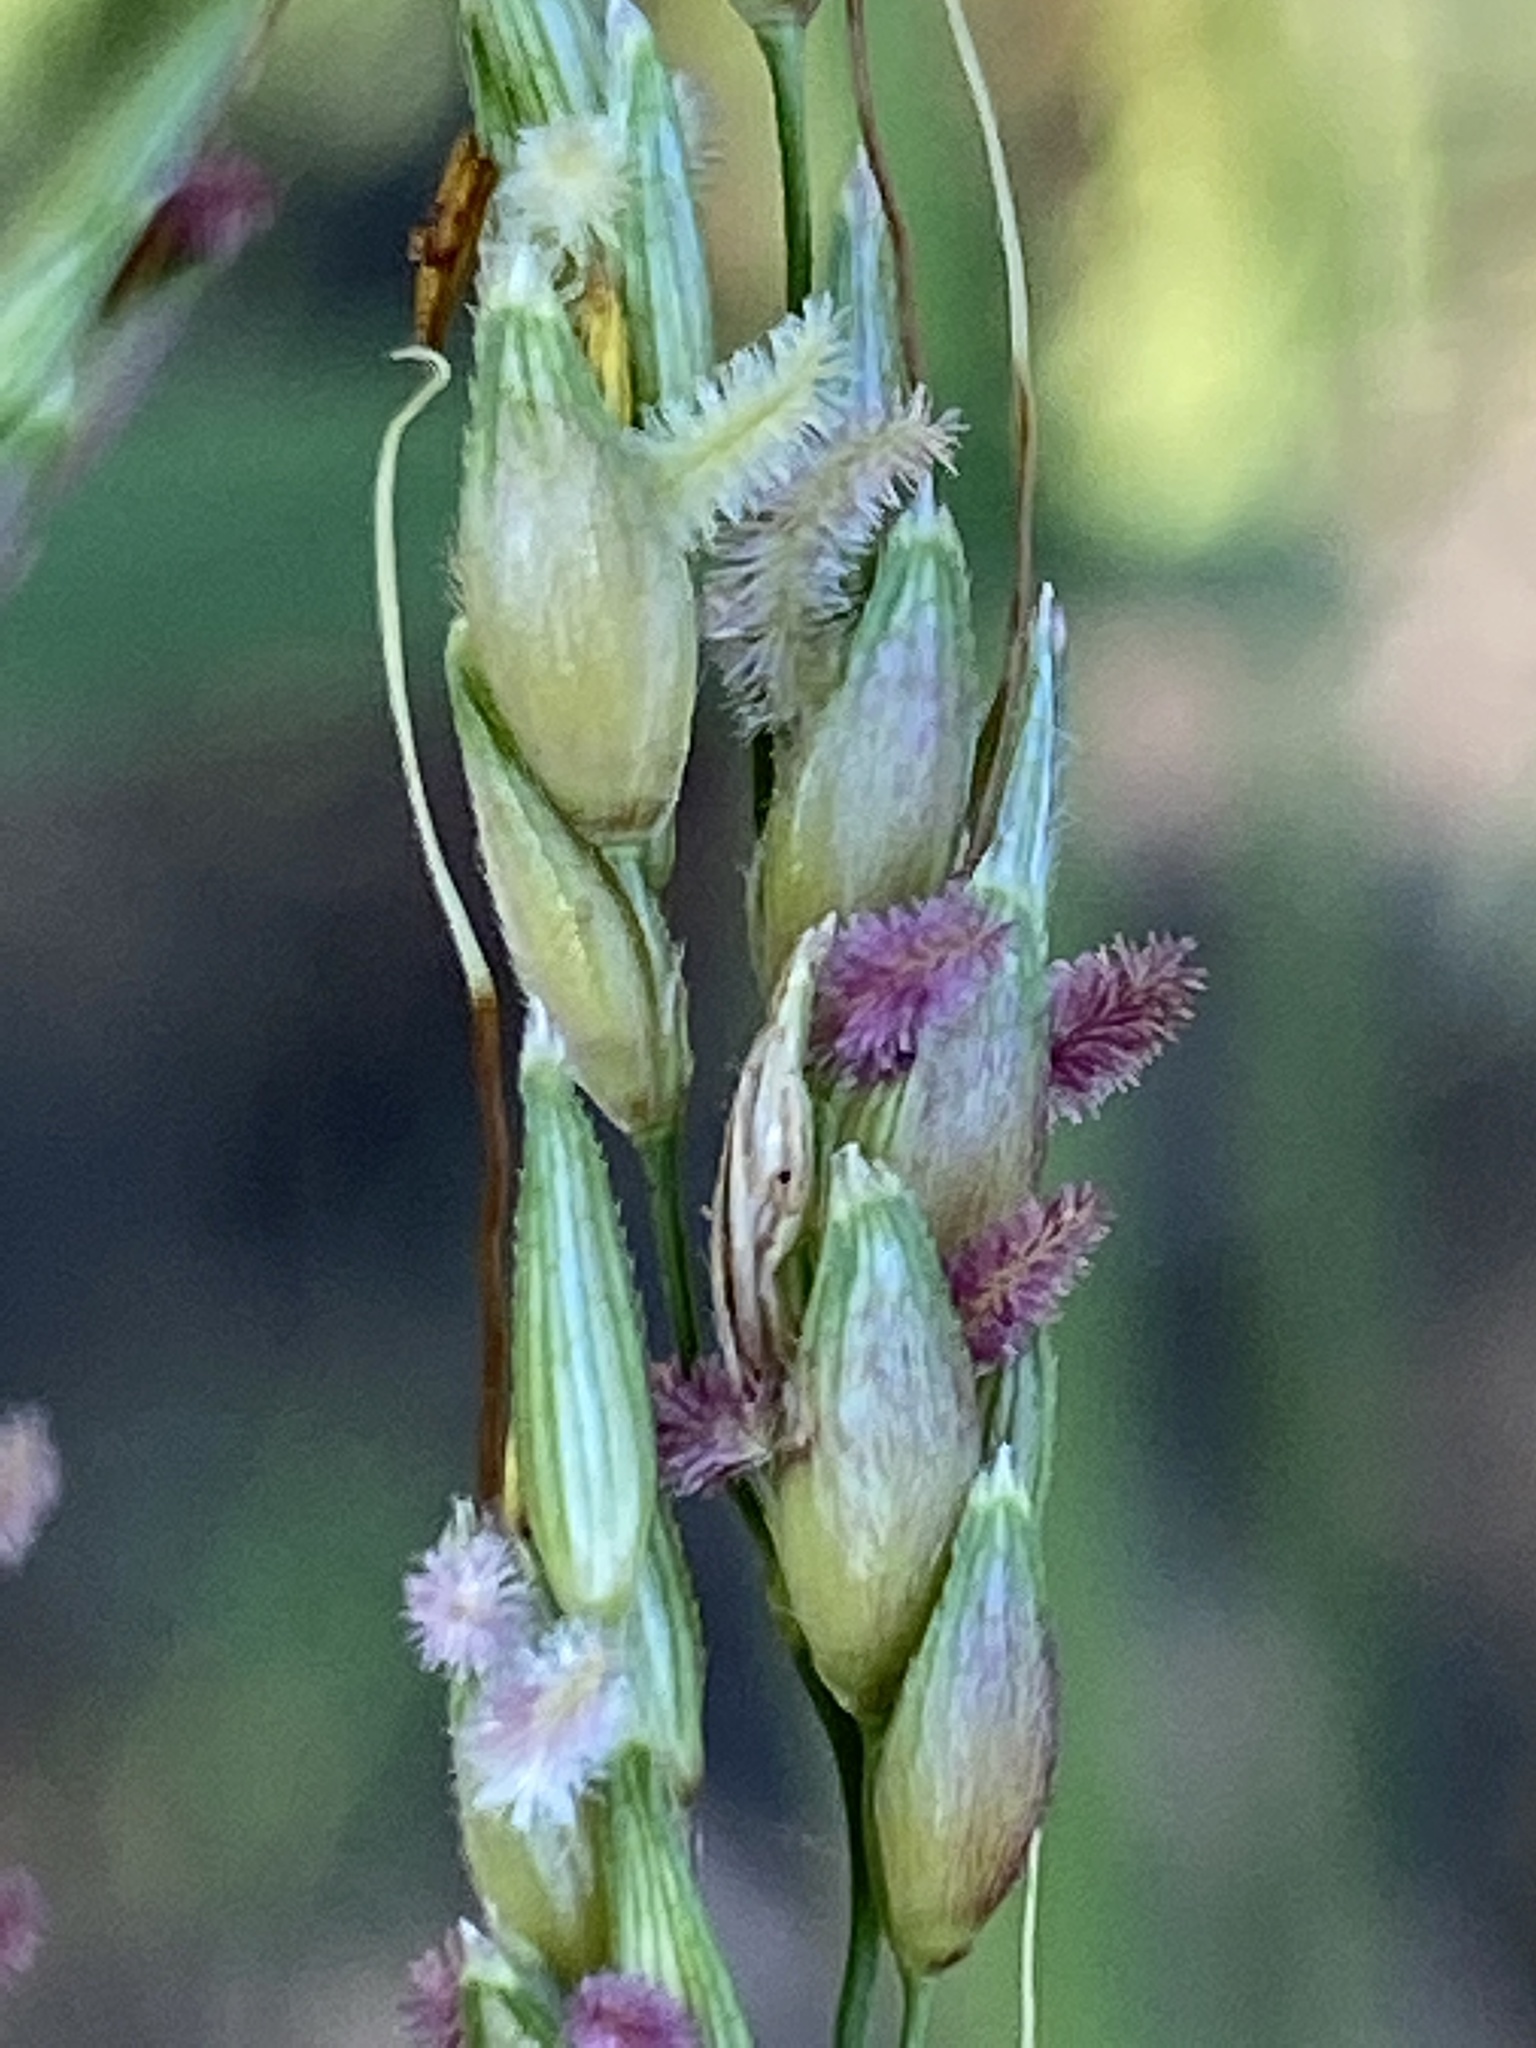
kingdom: Plantae
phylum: Tracheophyta
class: Liliopsida
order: Poales
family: Poaceae
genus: Sorghum
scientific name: Sorghum halepense
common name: Johnson-grass
